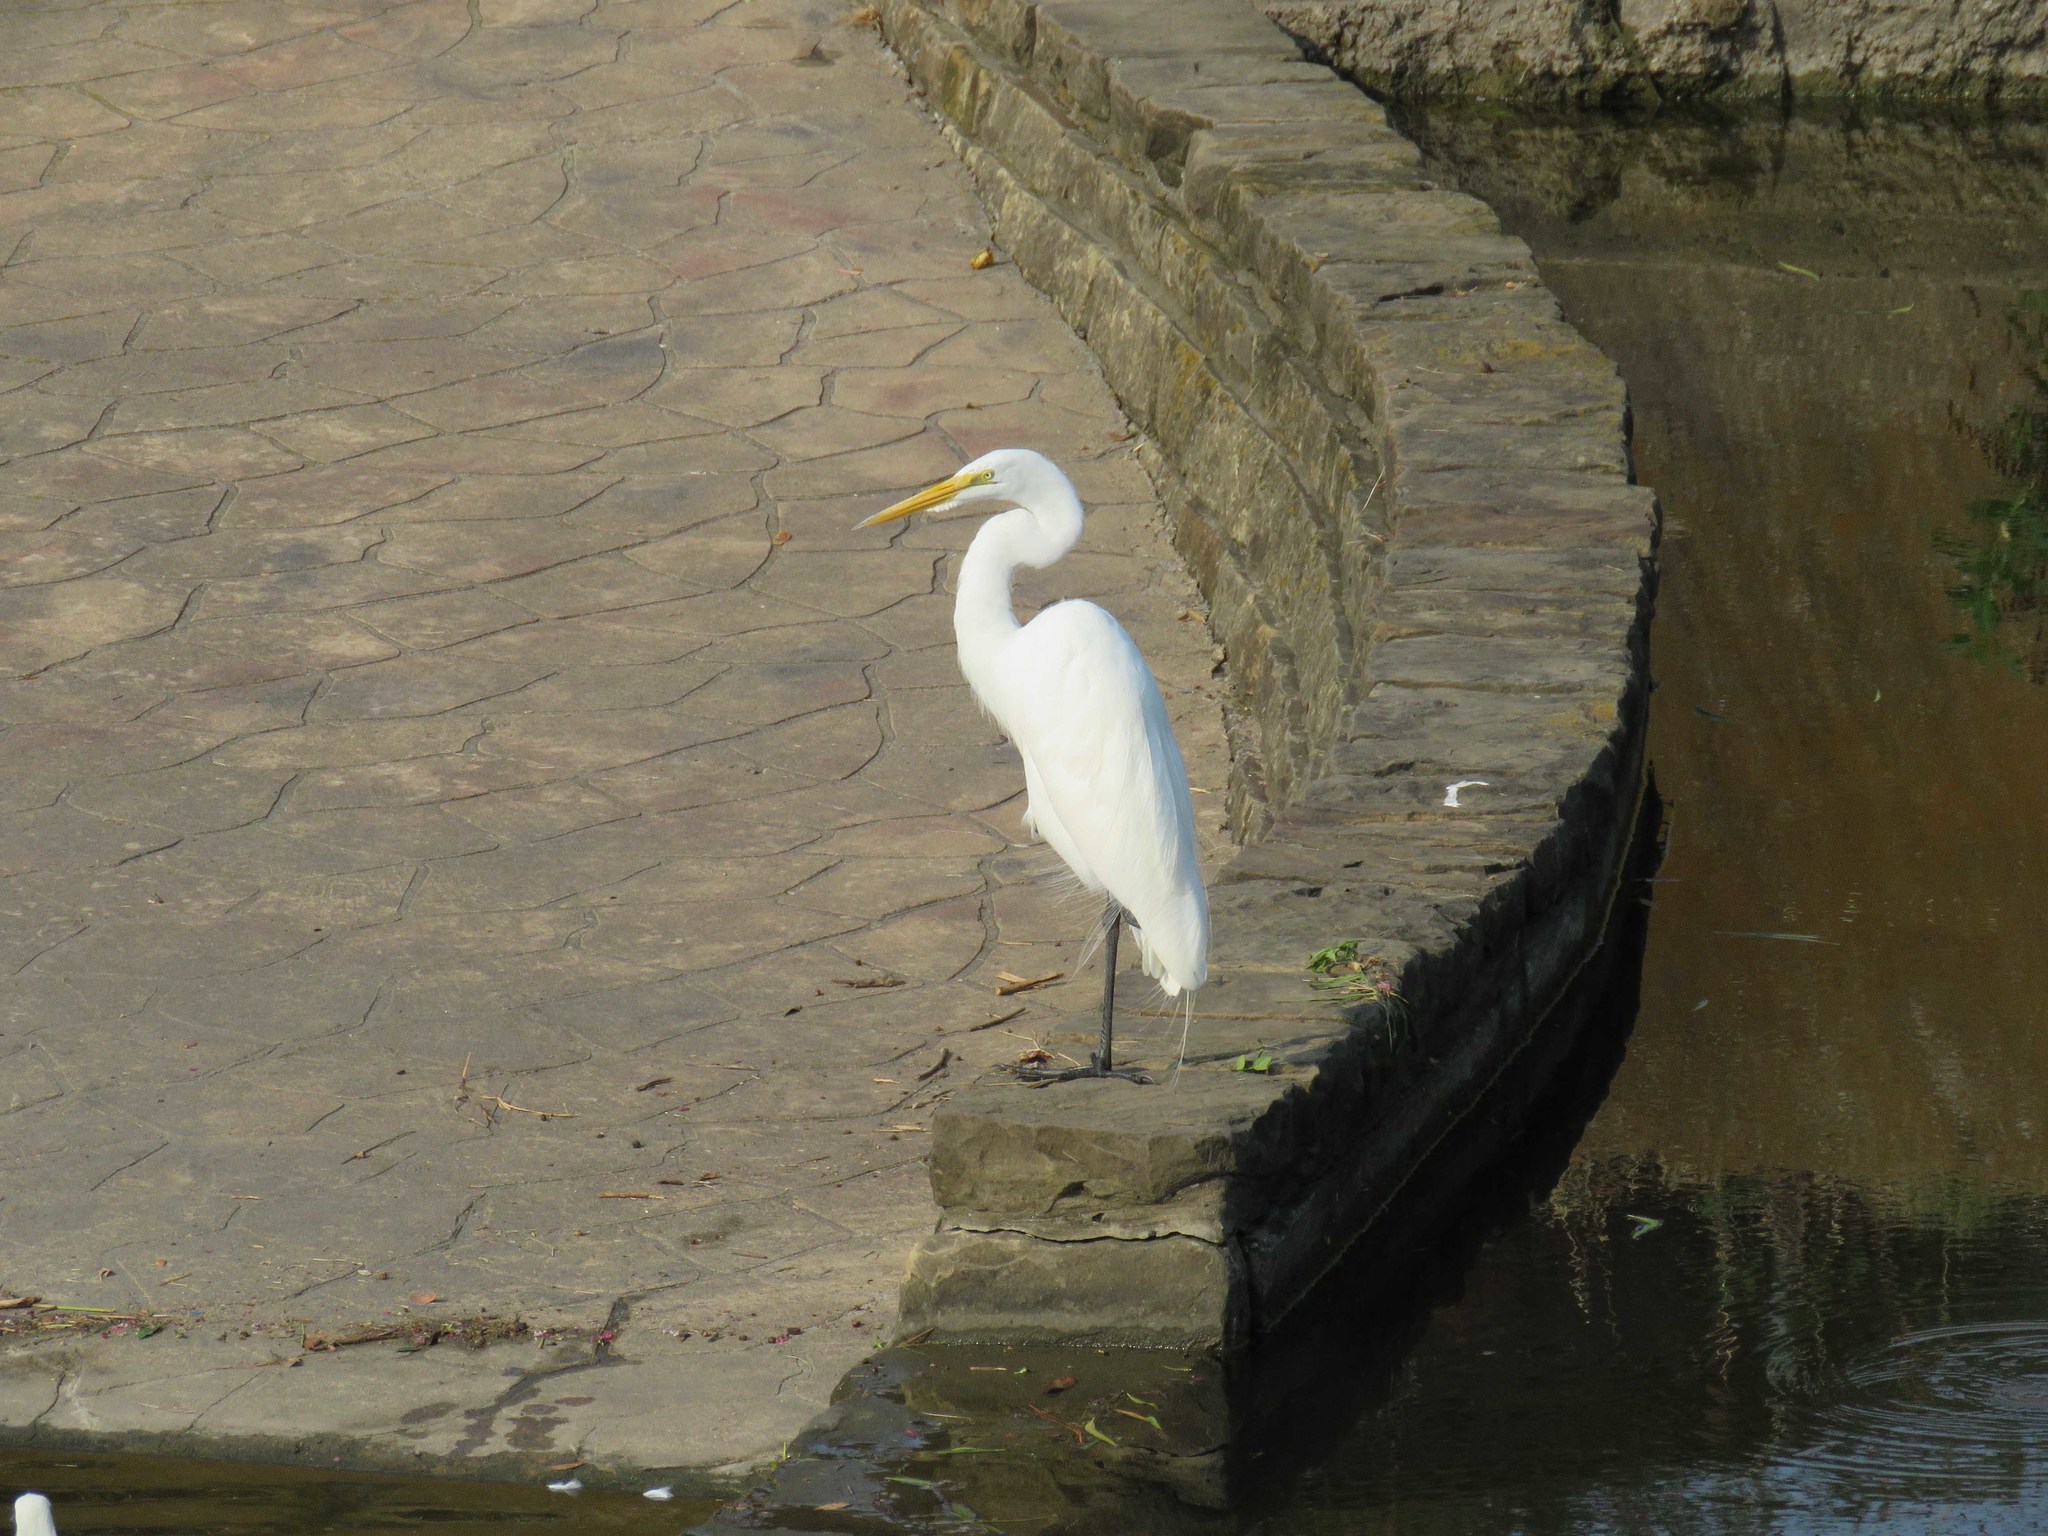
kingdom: Animalia
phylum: Chordata
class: Aves
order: Pelecaniformes
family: Ardeidae
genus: Ardea
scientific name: Ardea alba
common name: Great egret
